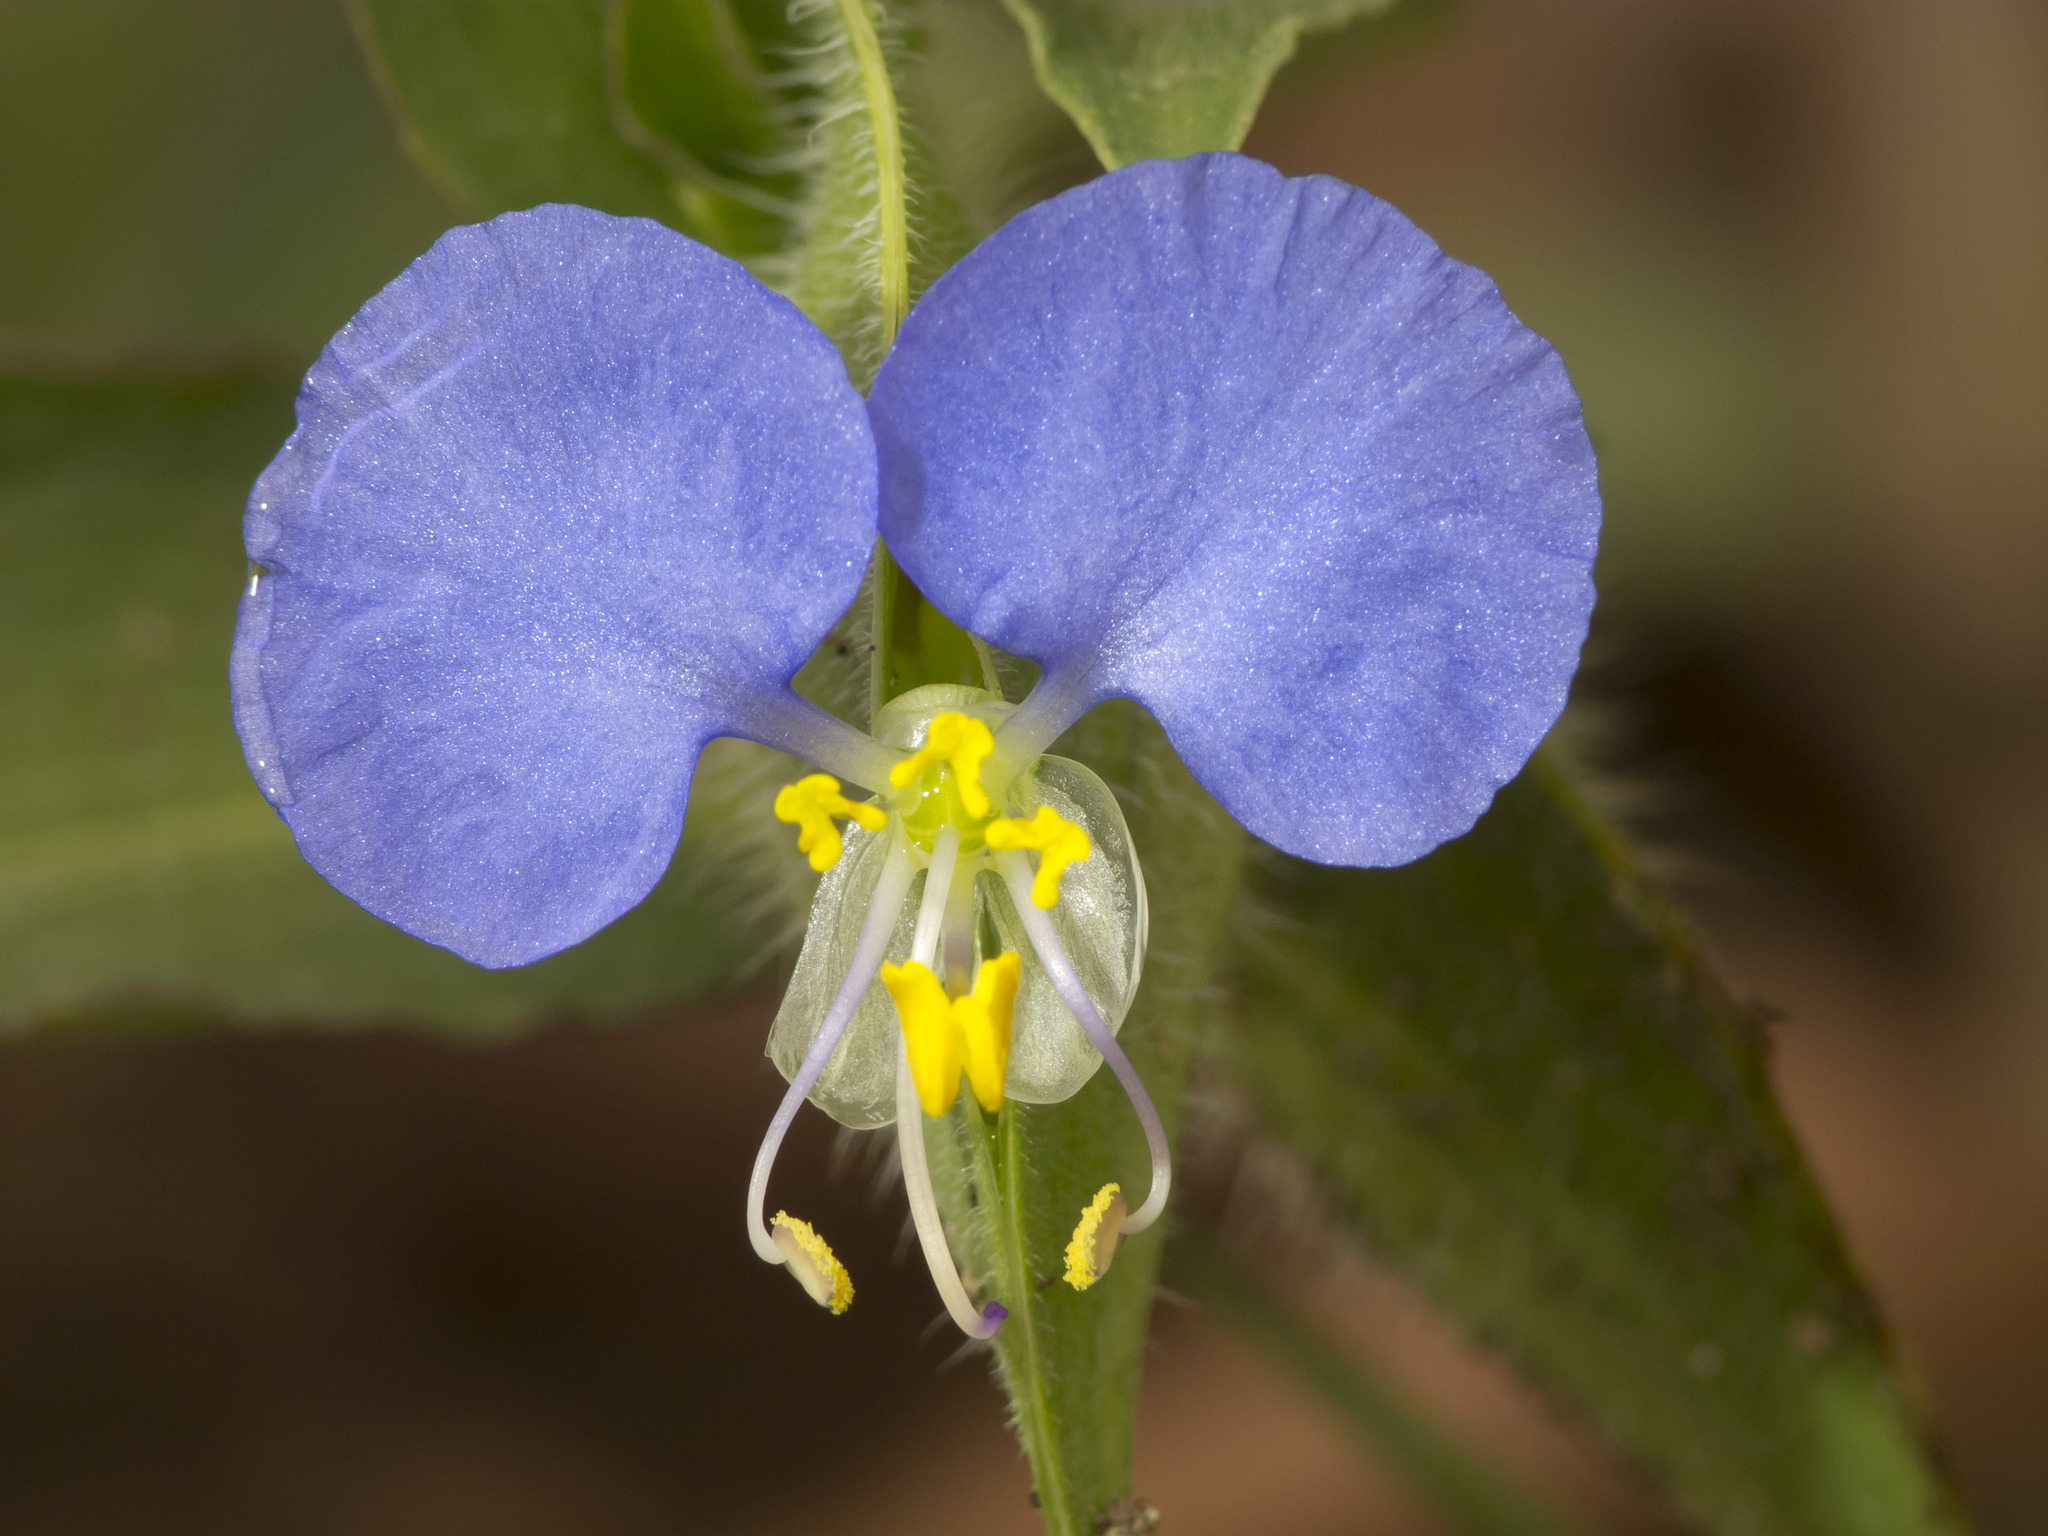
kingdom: Plantae
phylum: Tracheophyta
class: Liliopsida
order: Commelinales
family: Commelinaceae
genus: Commelina
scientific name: Commelina erecta
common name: Blousel blommetjie
